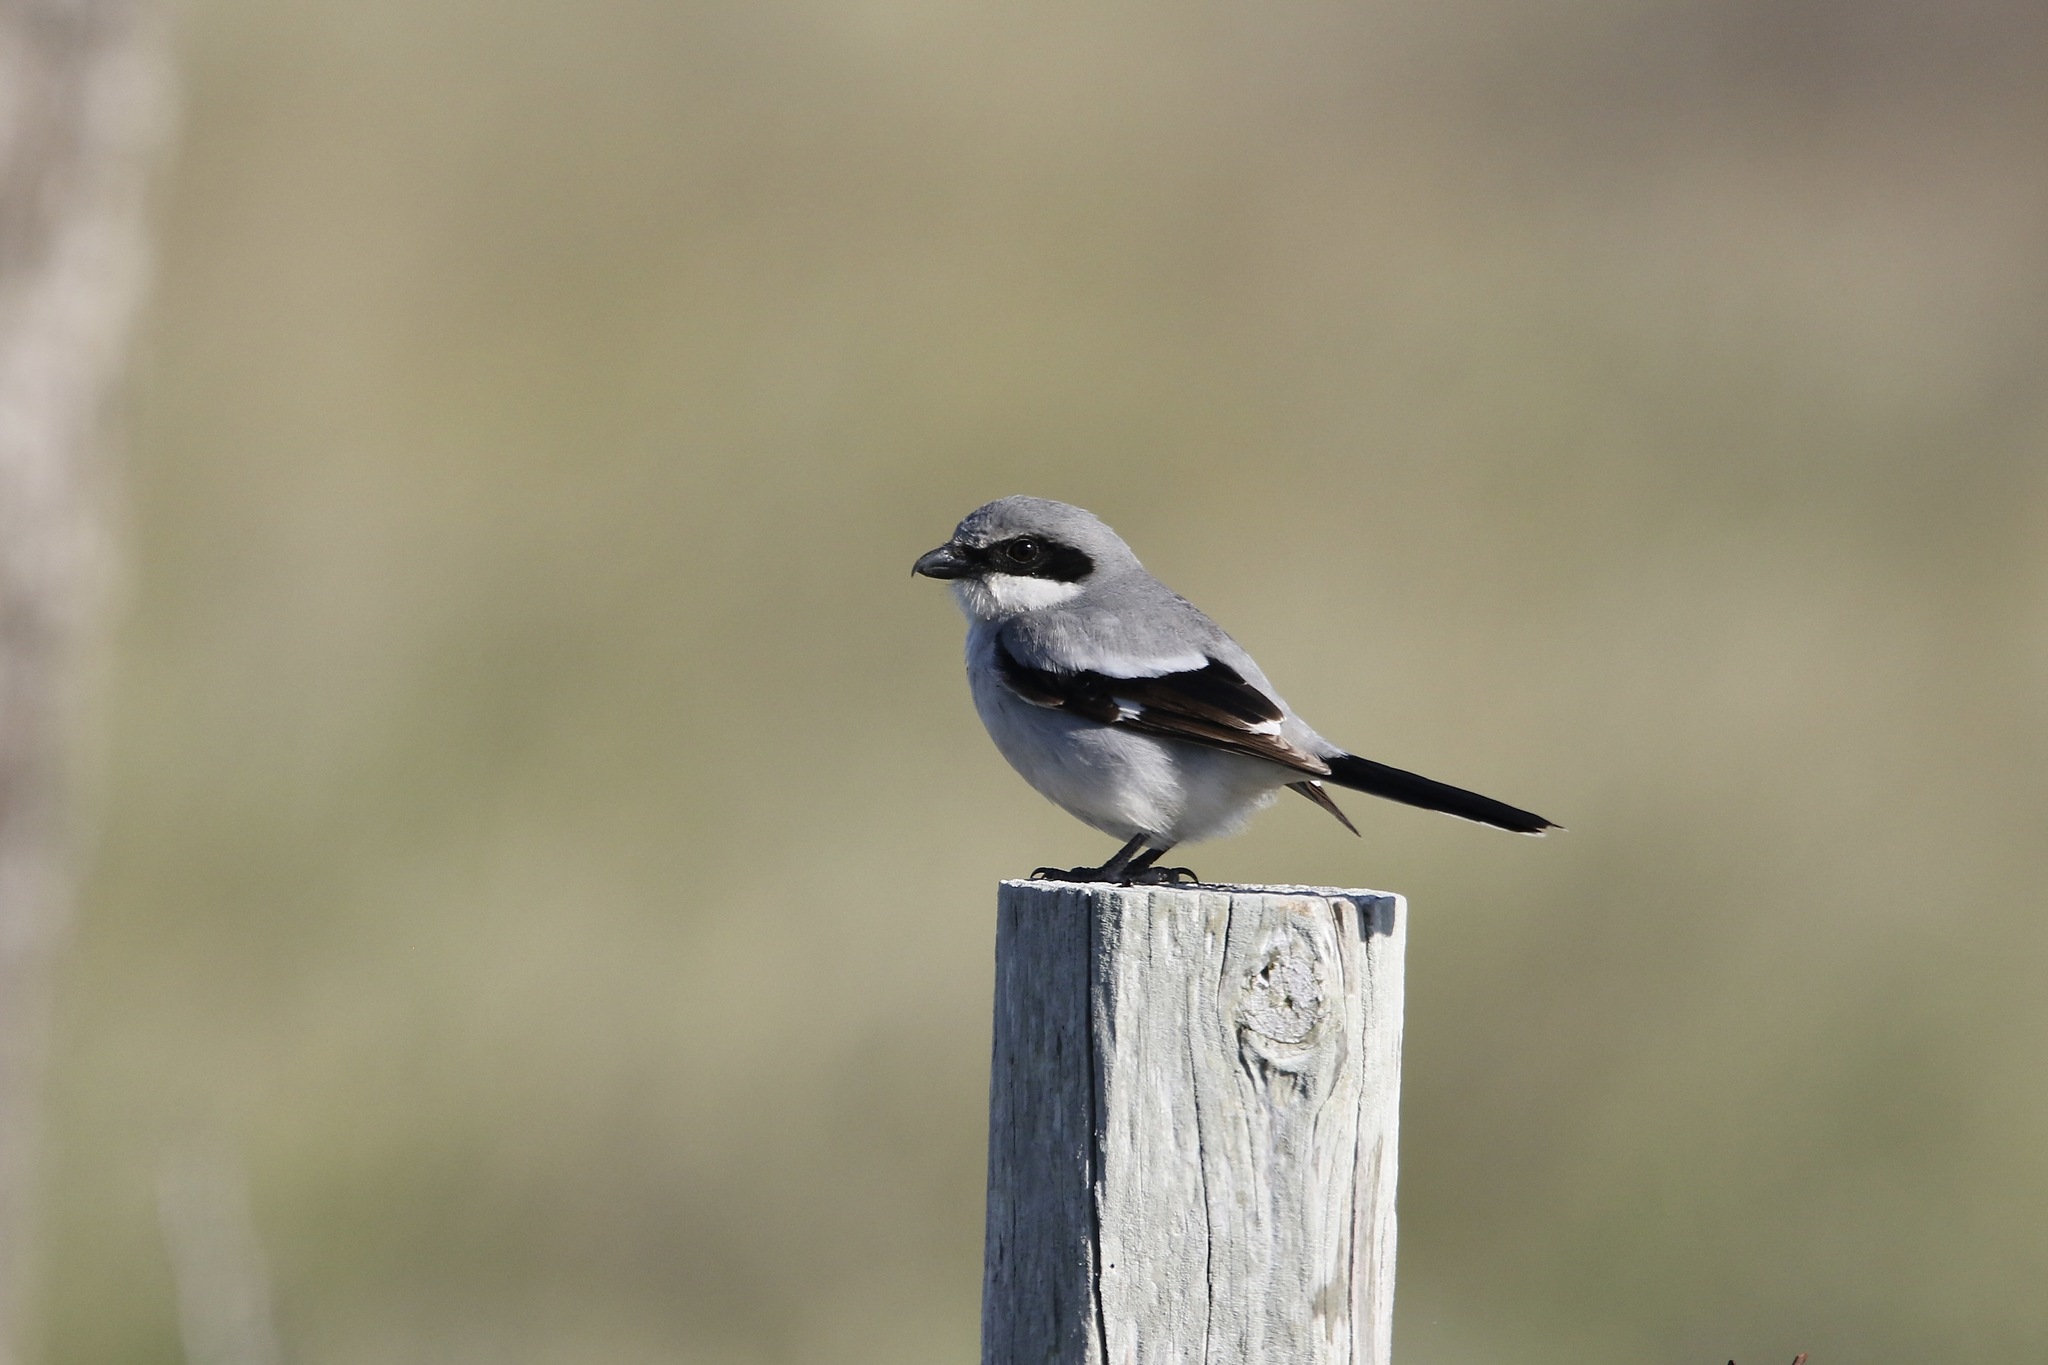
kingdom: Animalia
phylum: Chordata
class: Aves
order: Passeriformes
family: Laniidae
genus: Lanius
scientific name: Lanius ludovicianus
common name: Loggerhead shrike
